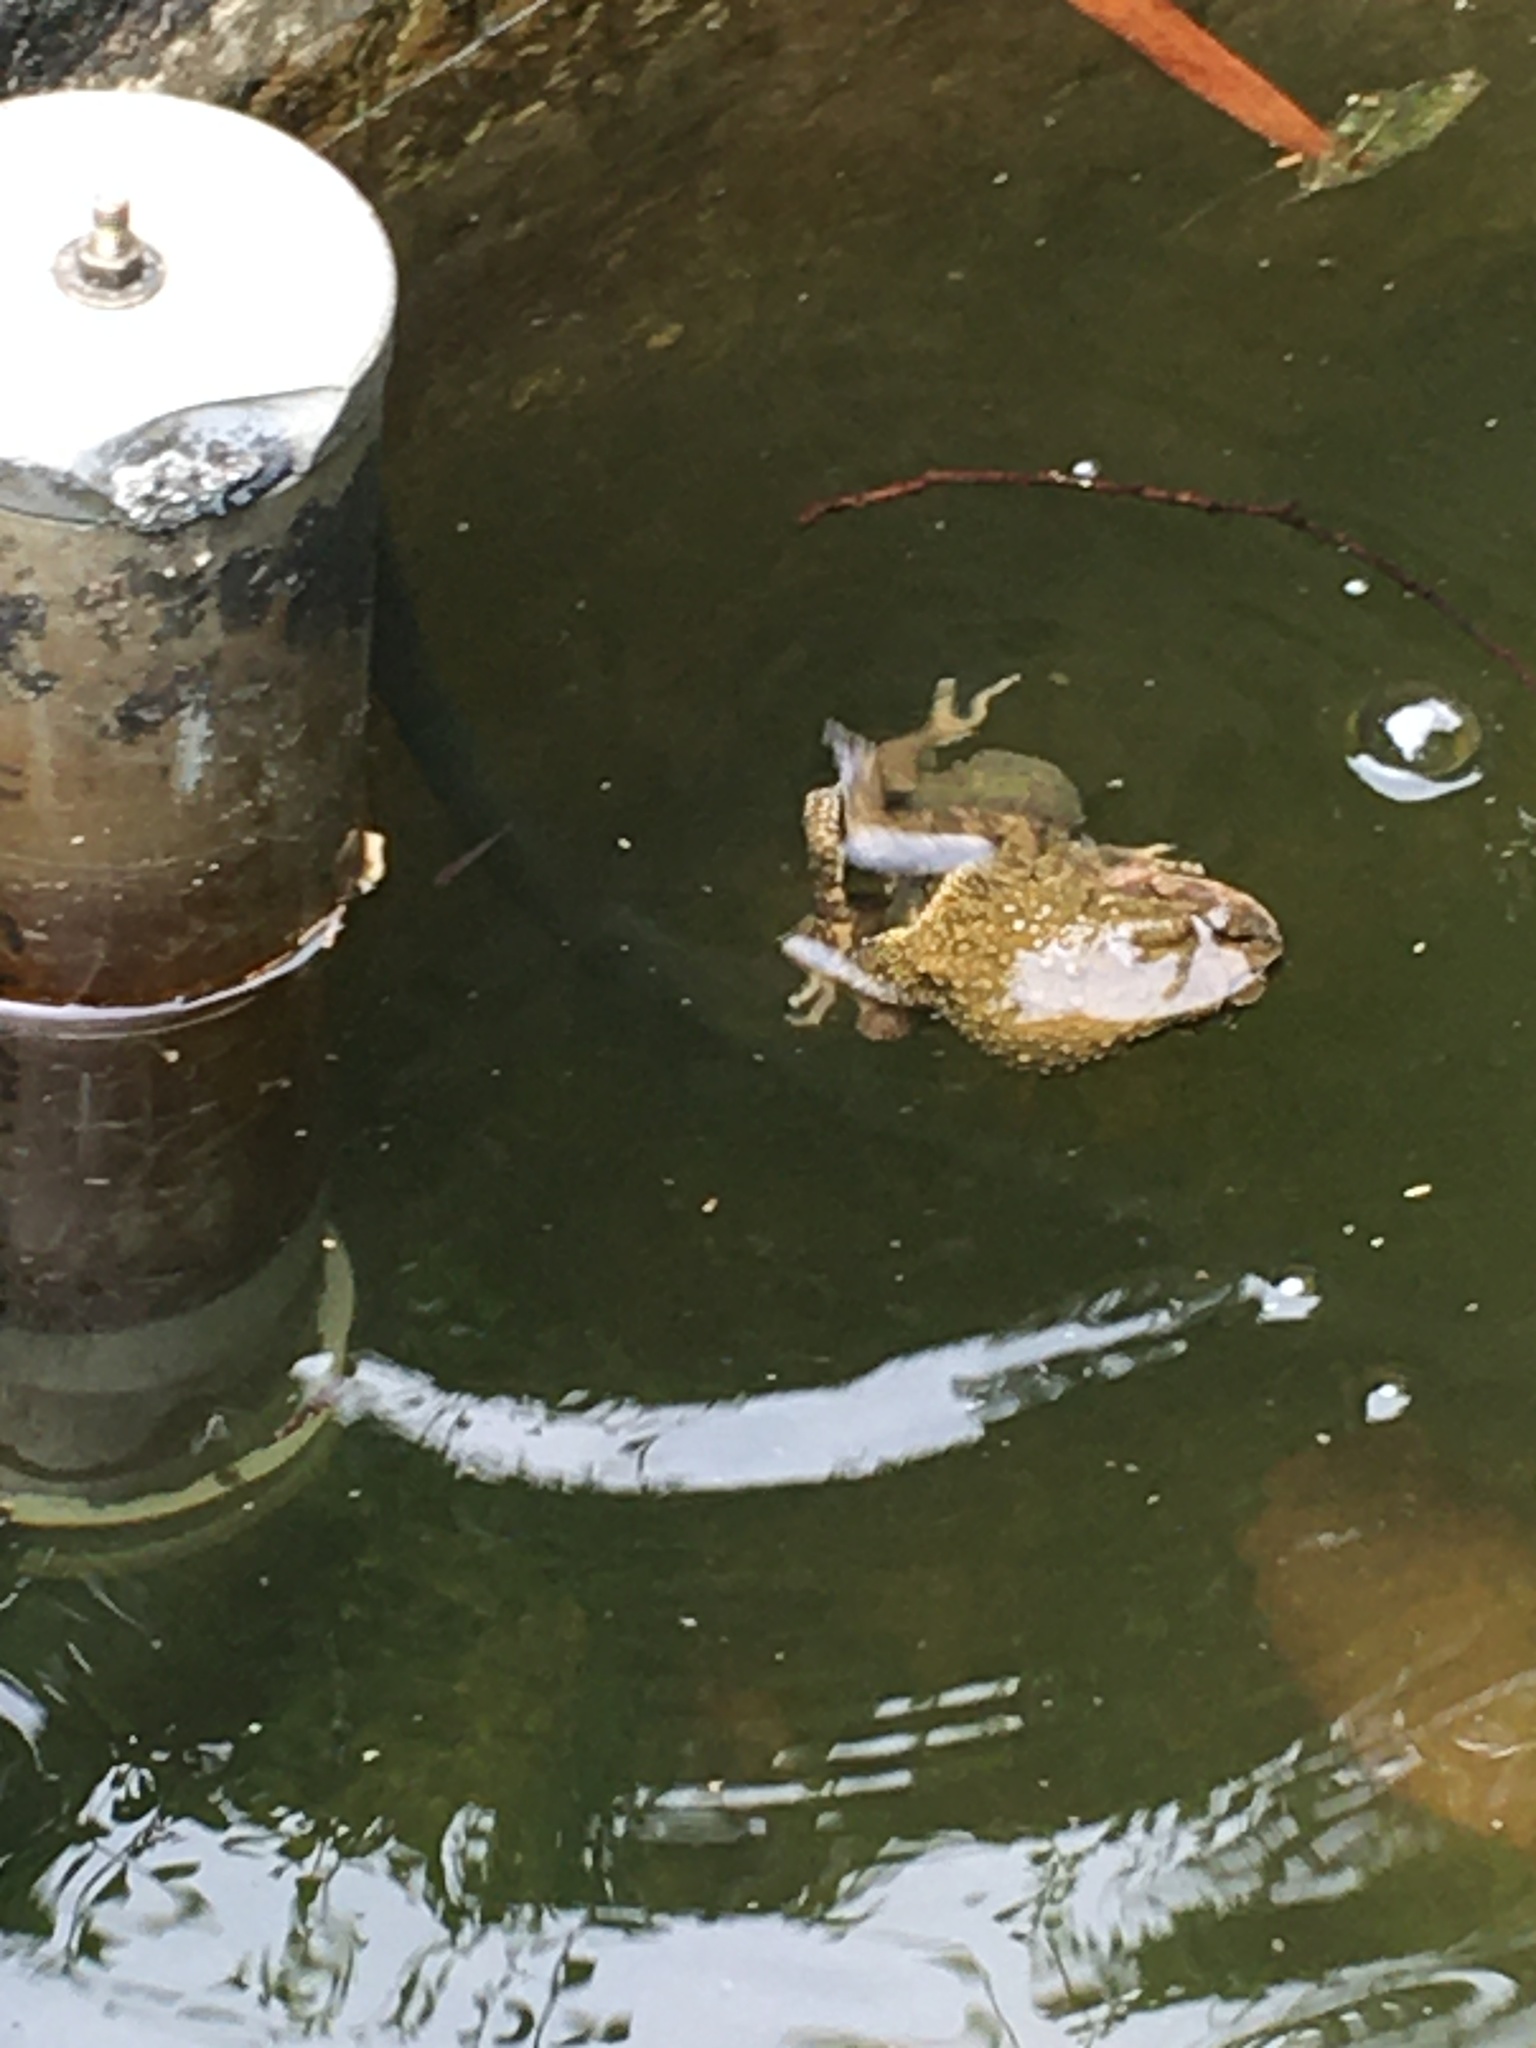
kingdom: Animalia
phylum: Chordata
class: Amphibia
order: Anura
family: Bufonidae
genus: Duttaphrynus
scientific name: Duttaphrynus melanostictus
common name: Common sunda toad
